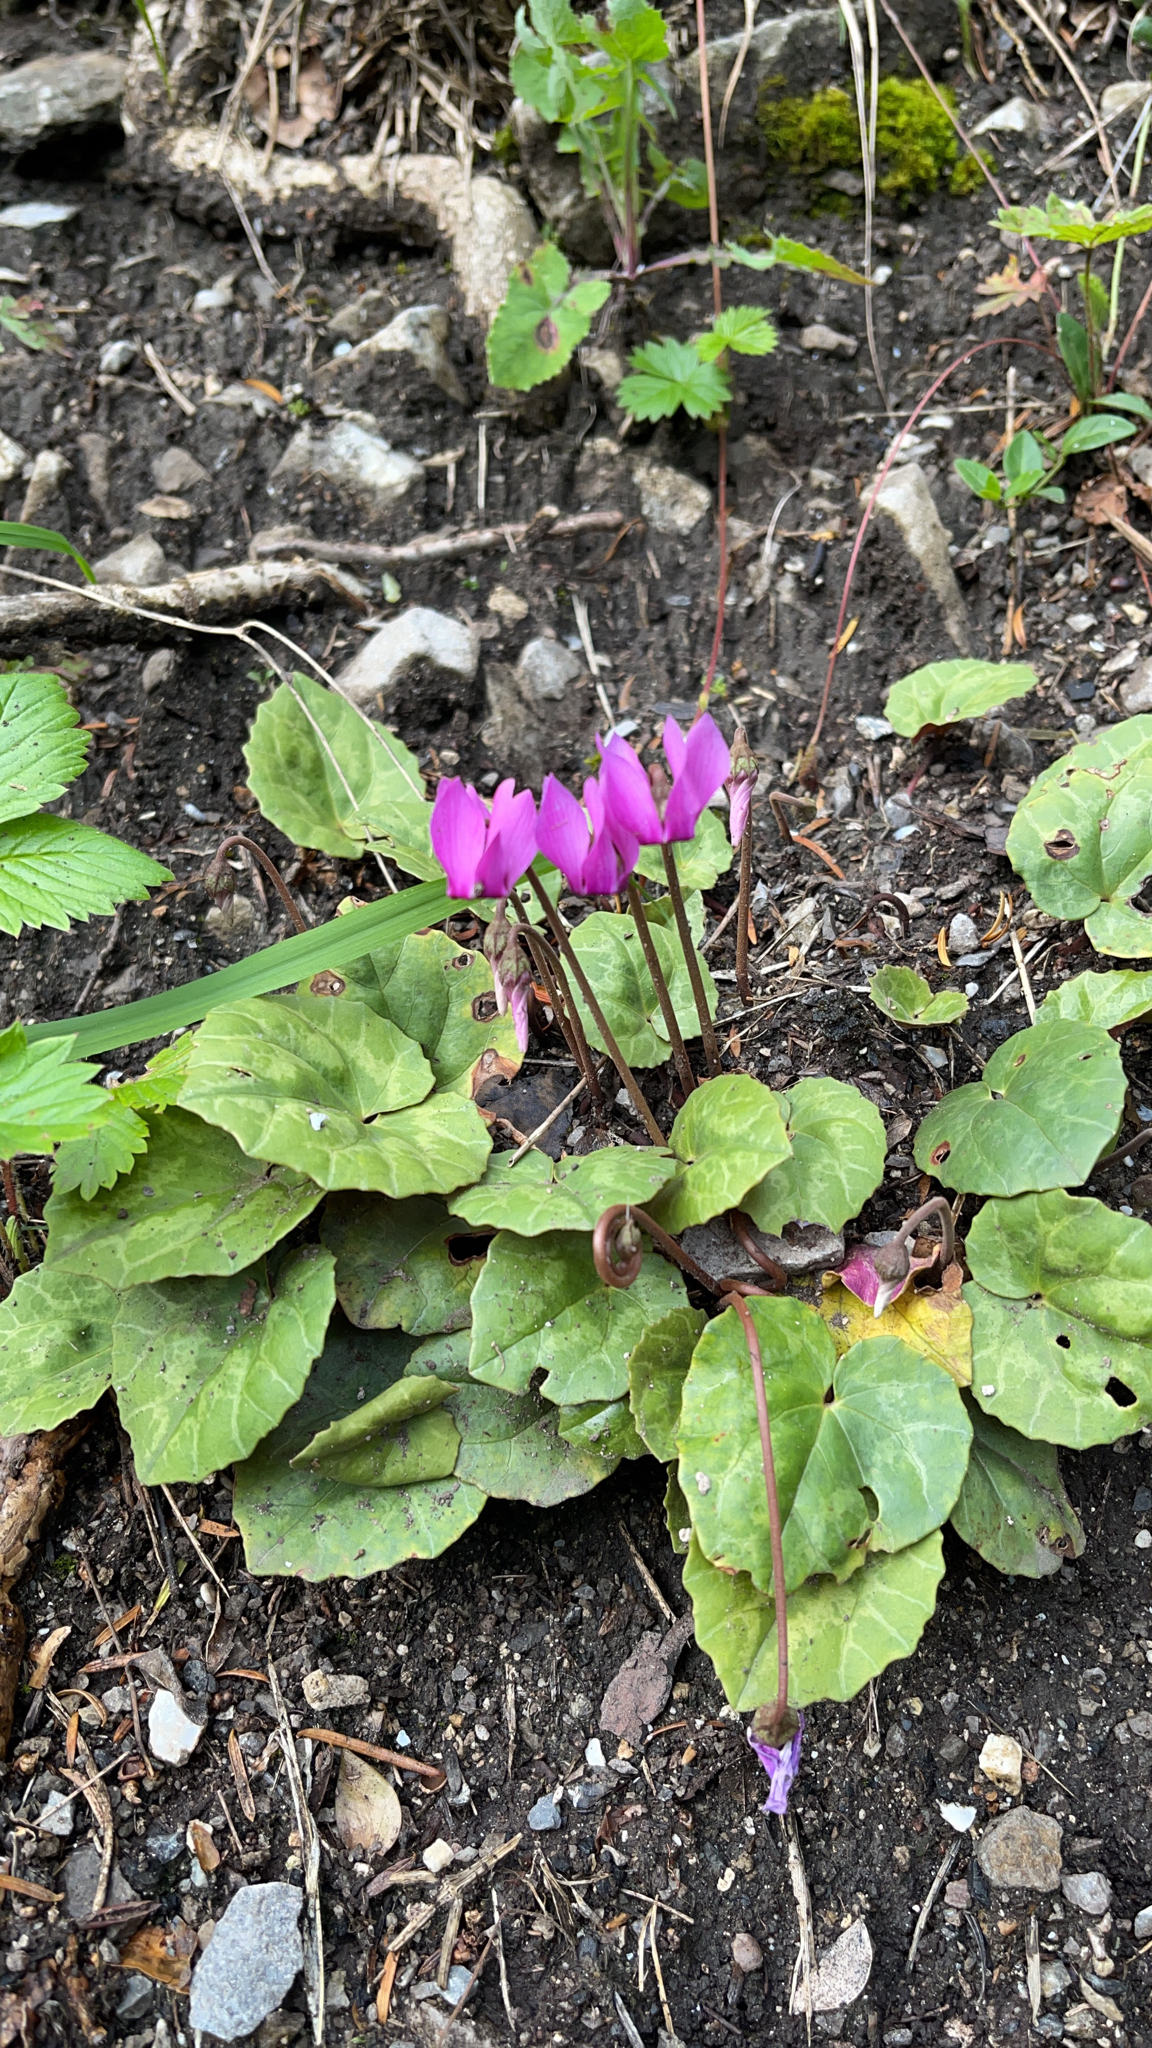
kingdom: Plantae
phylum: Tracheophyta
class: Magnoliopsida
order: Ericales
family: Primulaceae
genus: Cyclamen
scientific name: Cyclamen purpurascens
